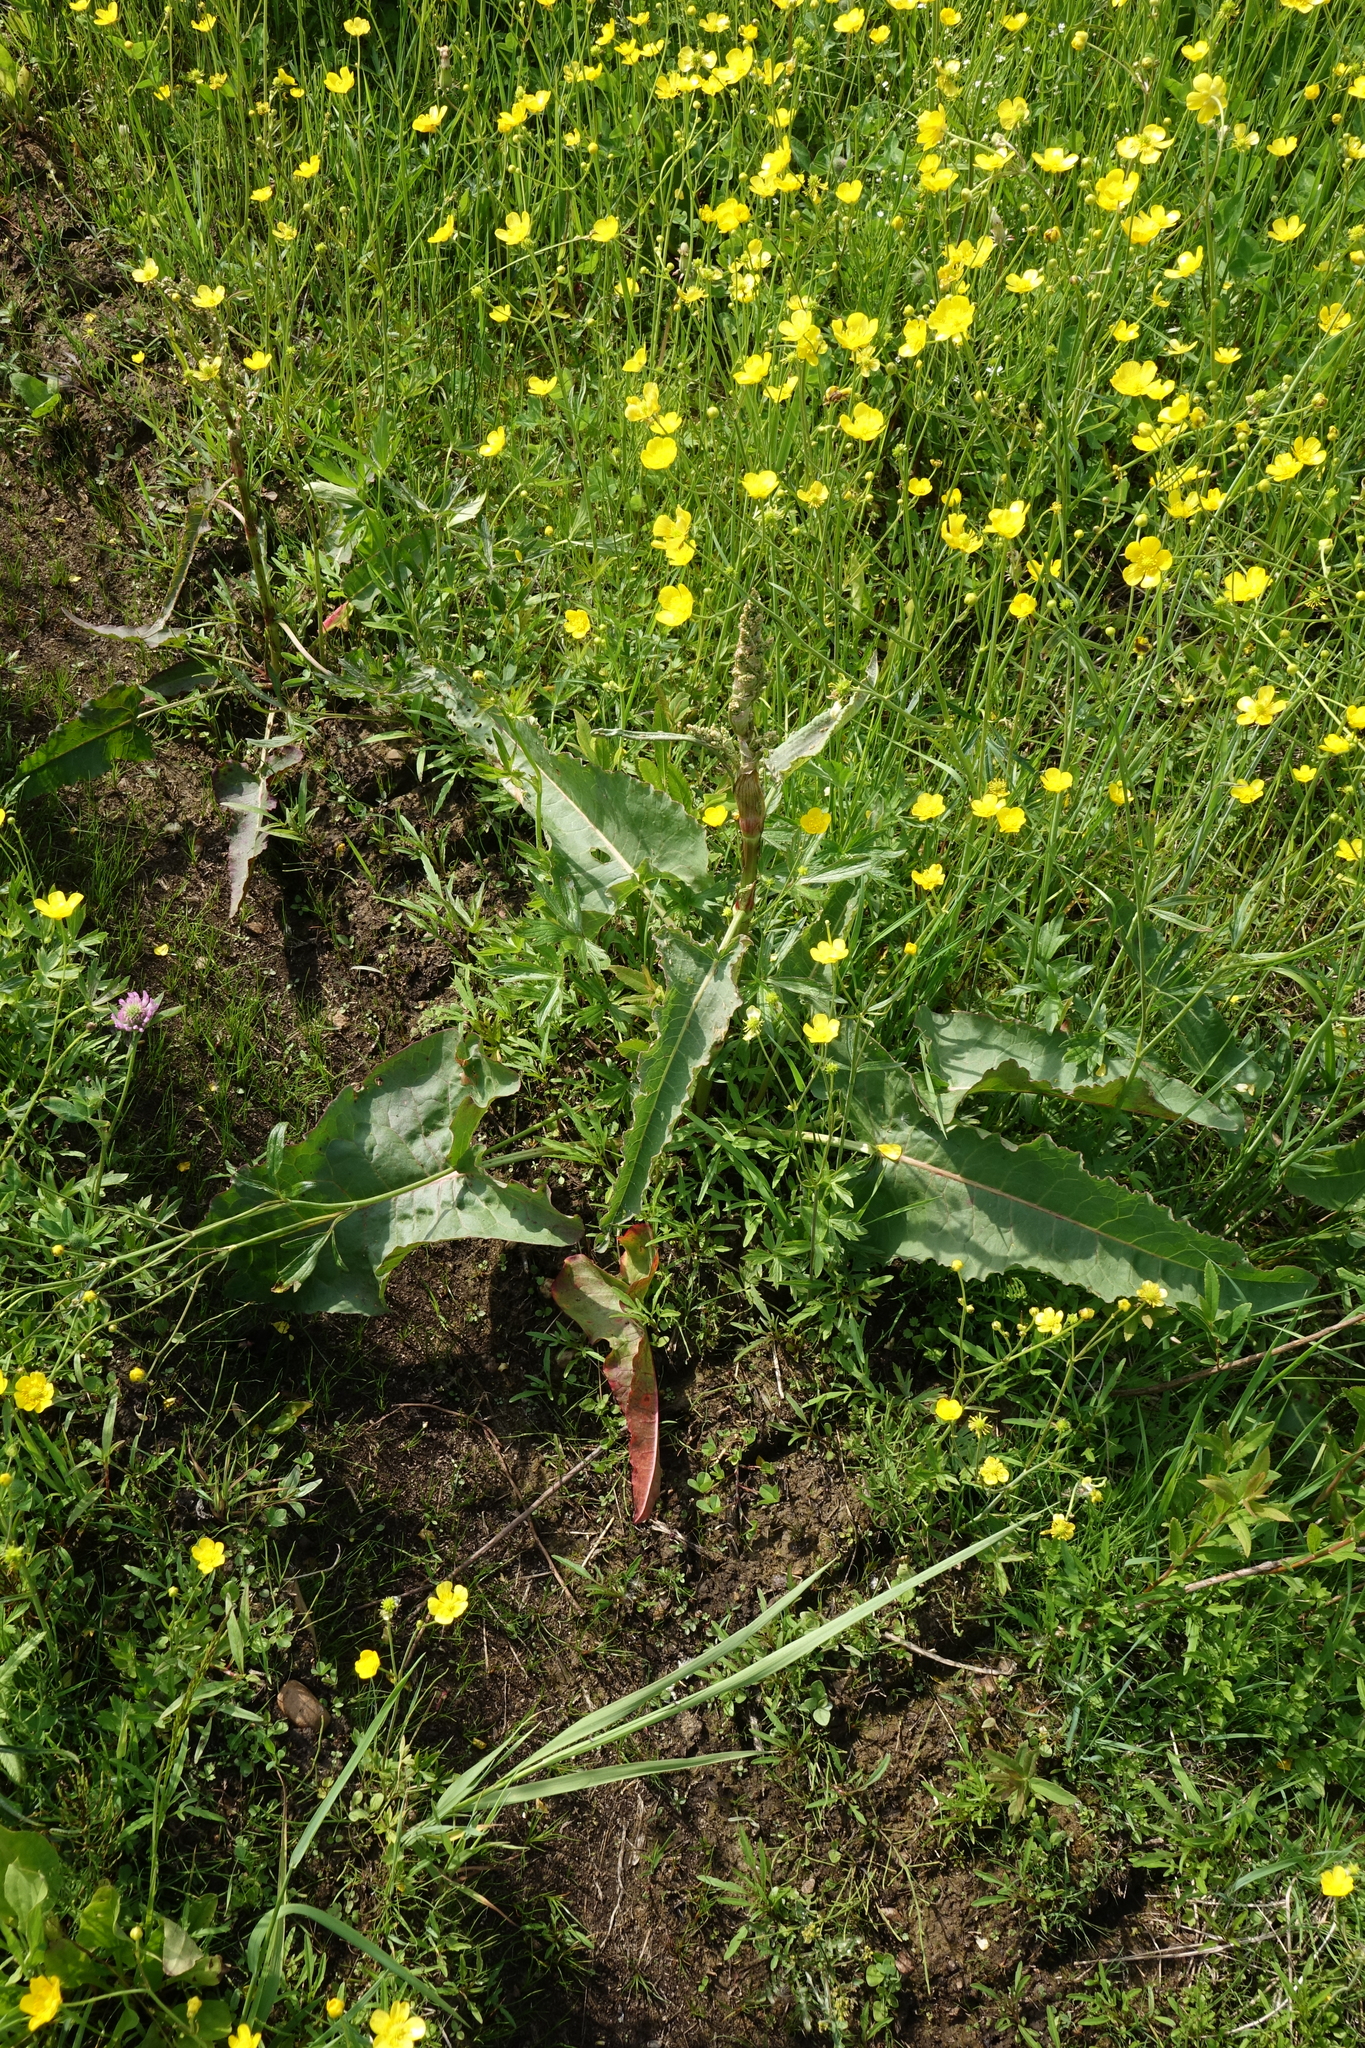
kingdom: Plantae
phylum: Tracheophyta
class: Magnoliopsida
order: Caryophyllales
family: Polygonaceae
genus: Rumex
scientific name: Rumex aquaticus
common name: Scottish dock
